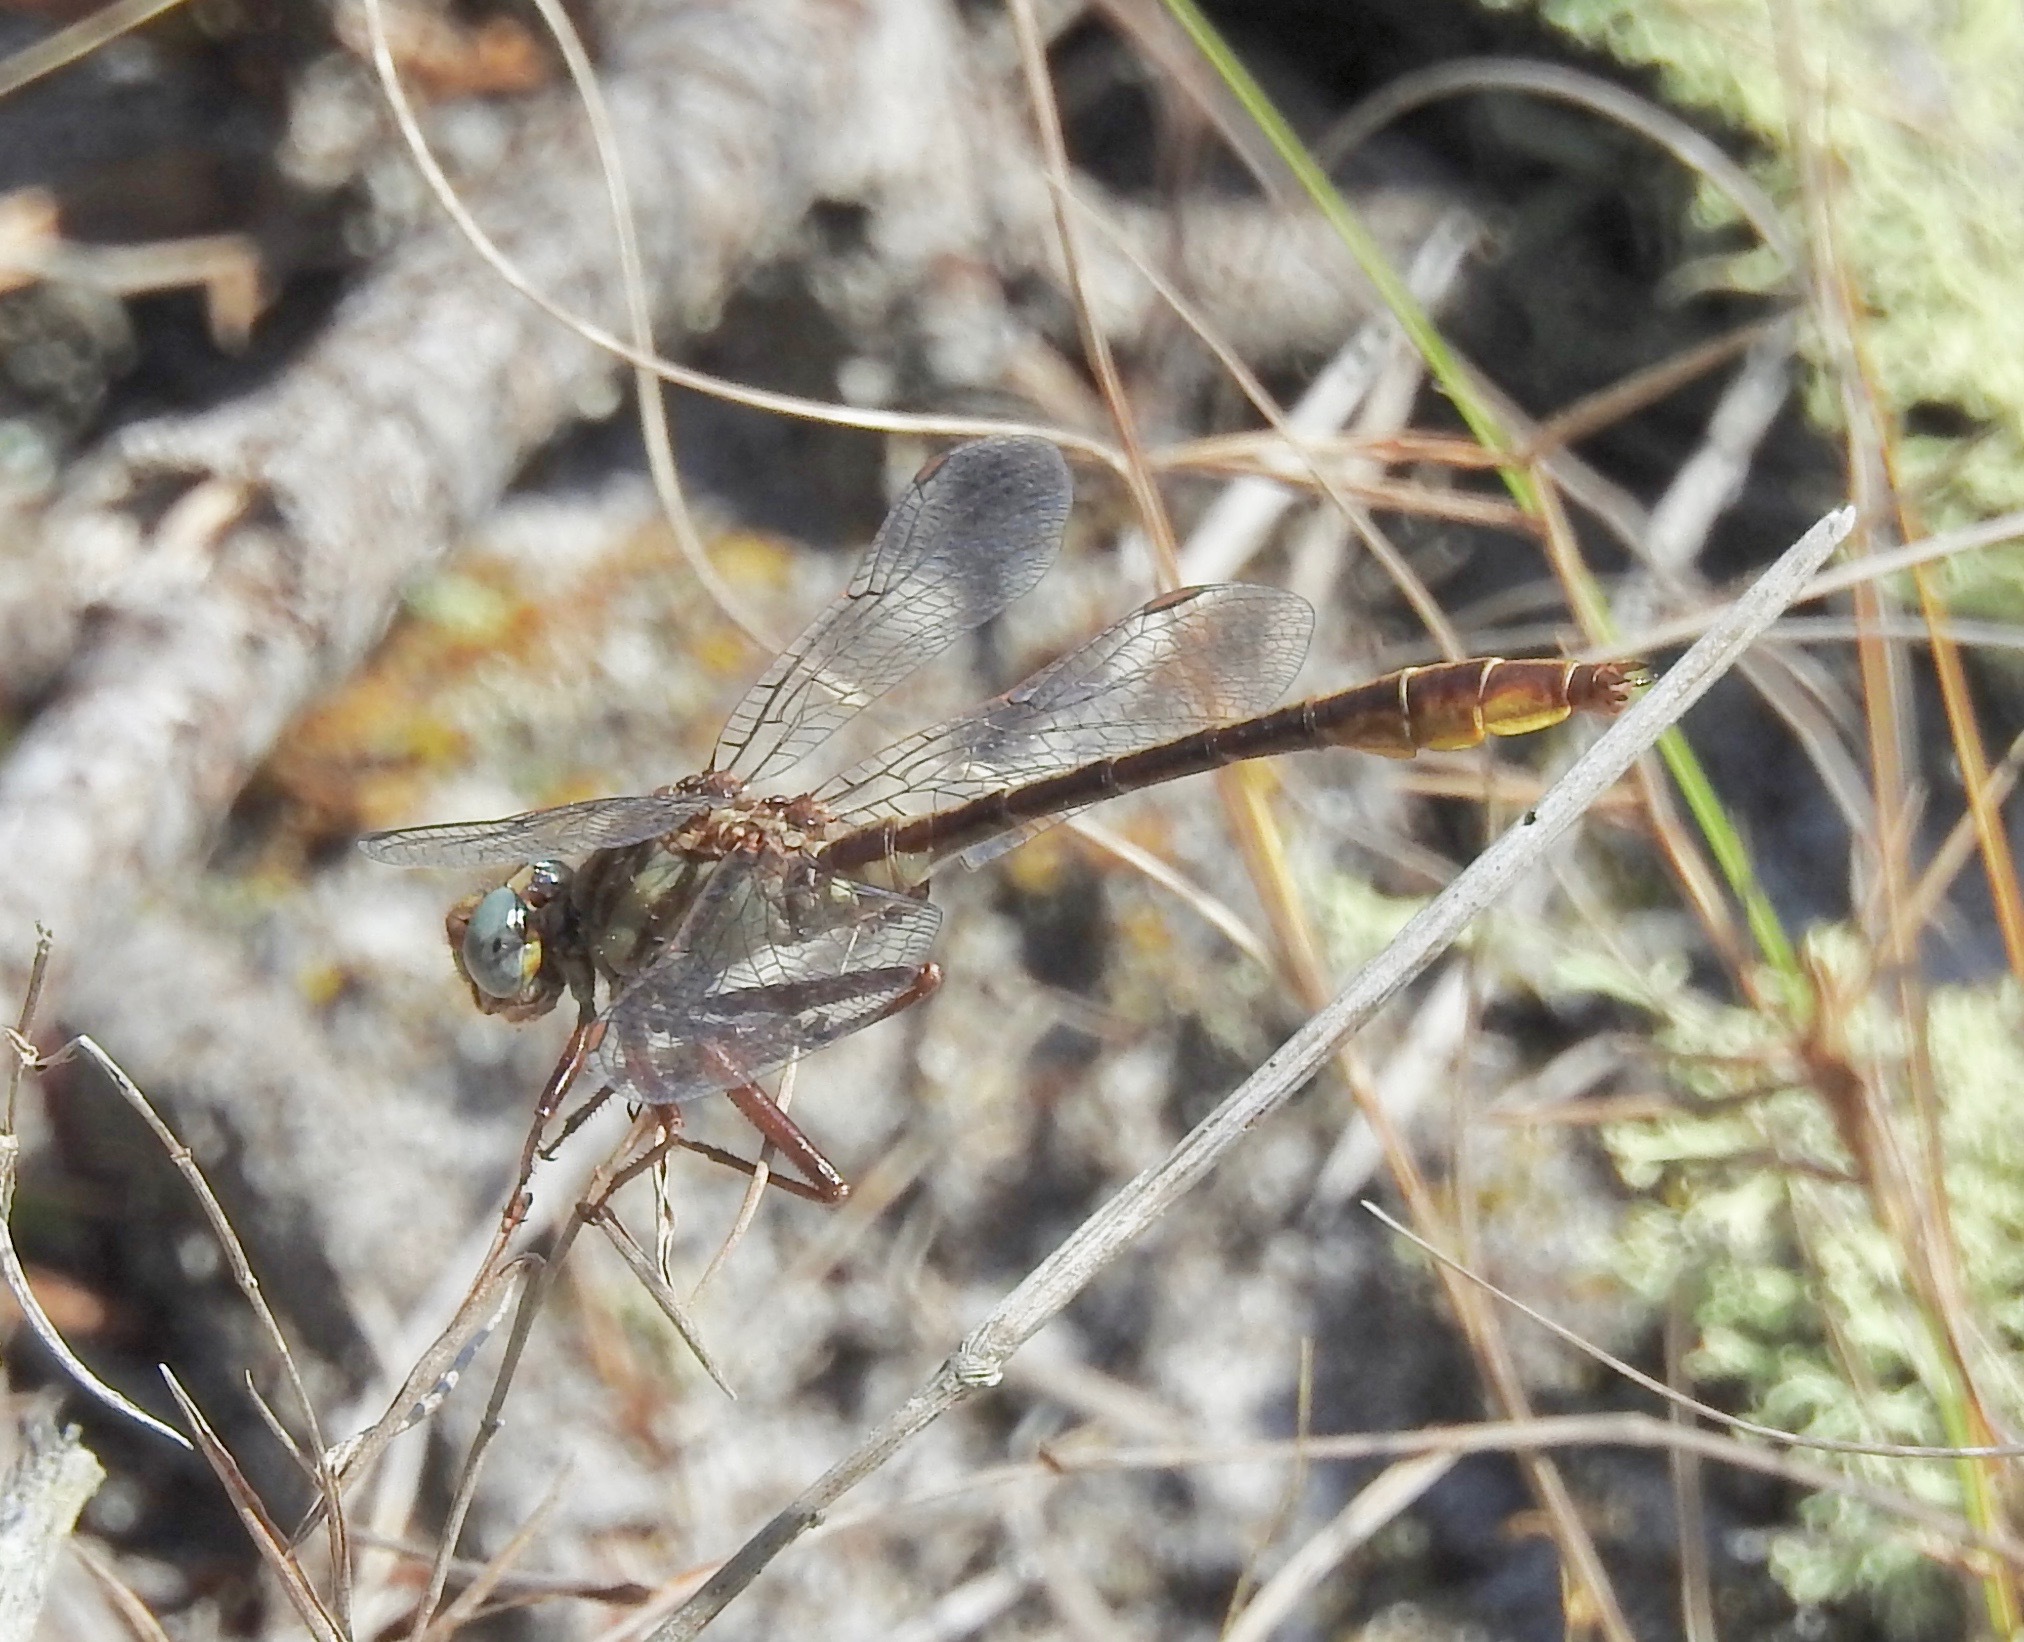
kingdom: Animalia
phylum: Arthropoda
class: Insecta
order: Odonata
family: Gomphidae
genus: Phanogomphus
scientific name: Phanogomphus cavillaris
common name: Sandhill clubtail
